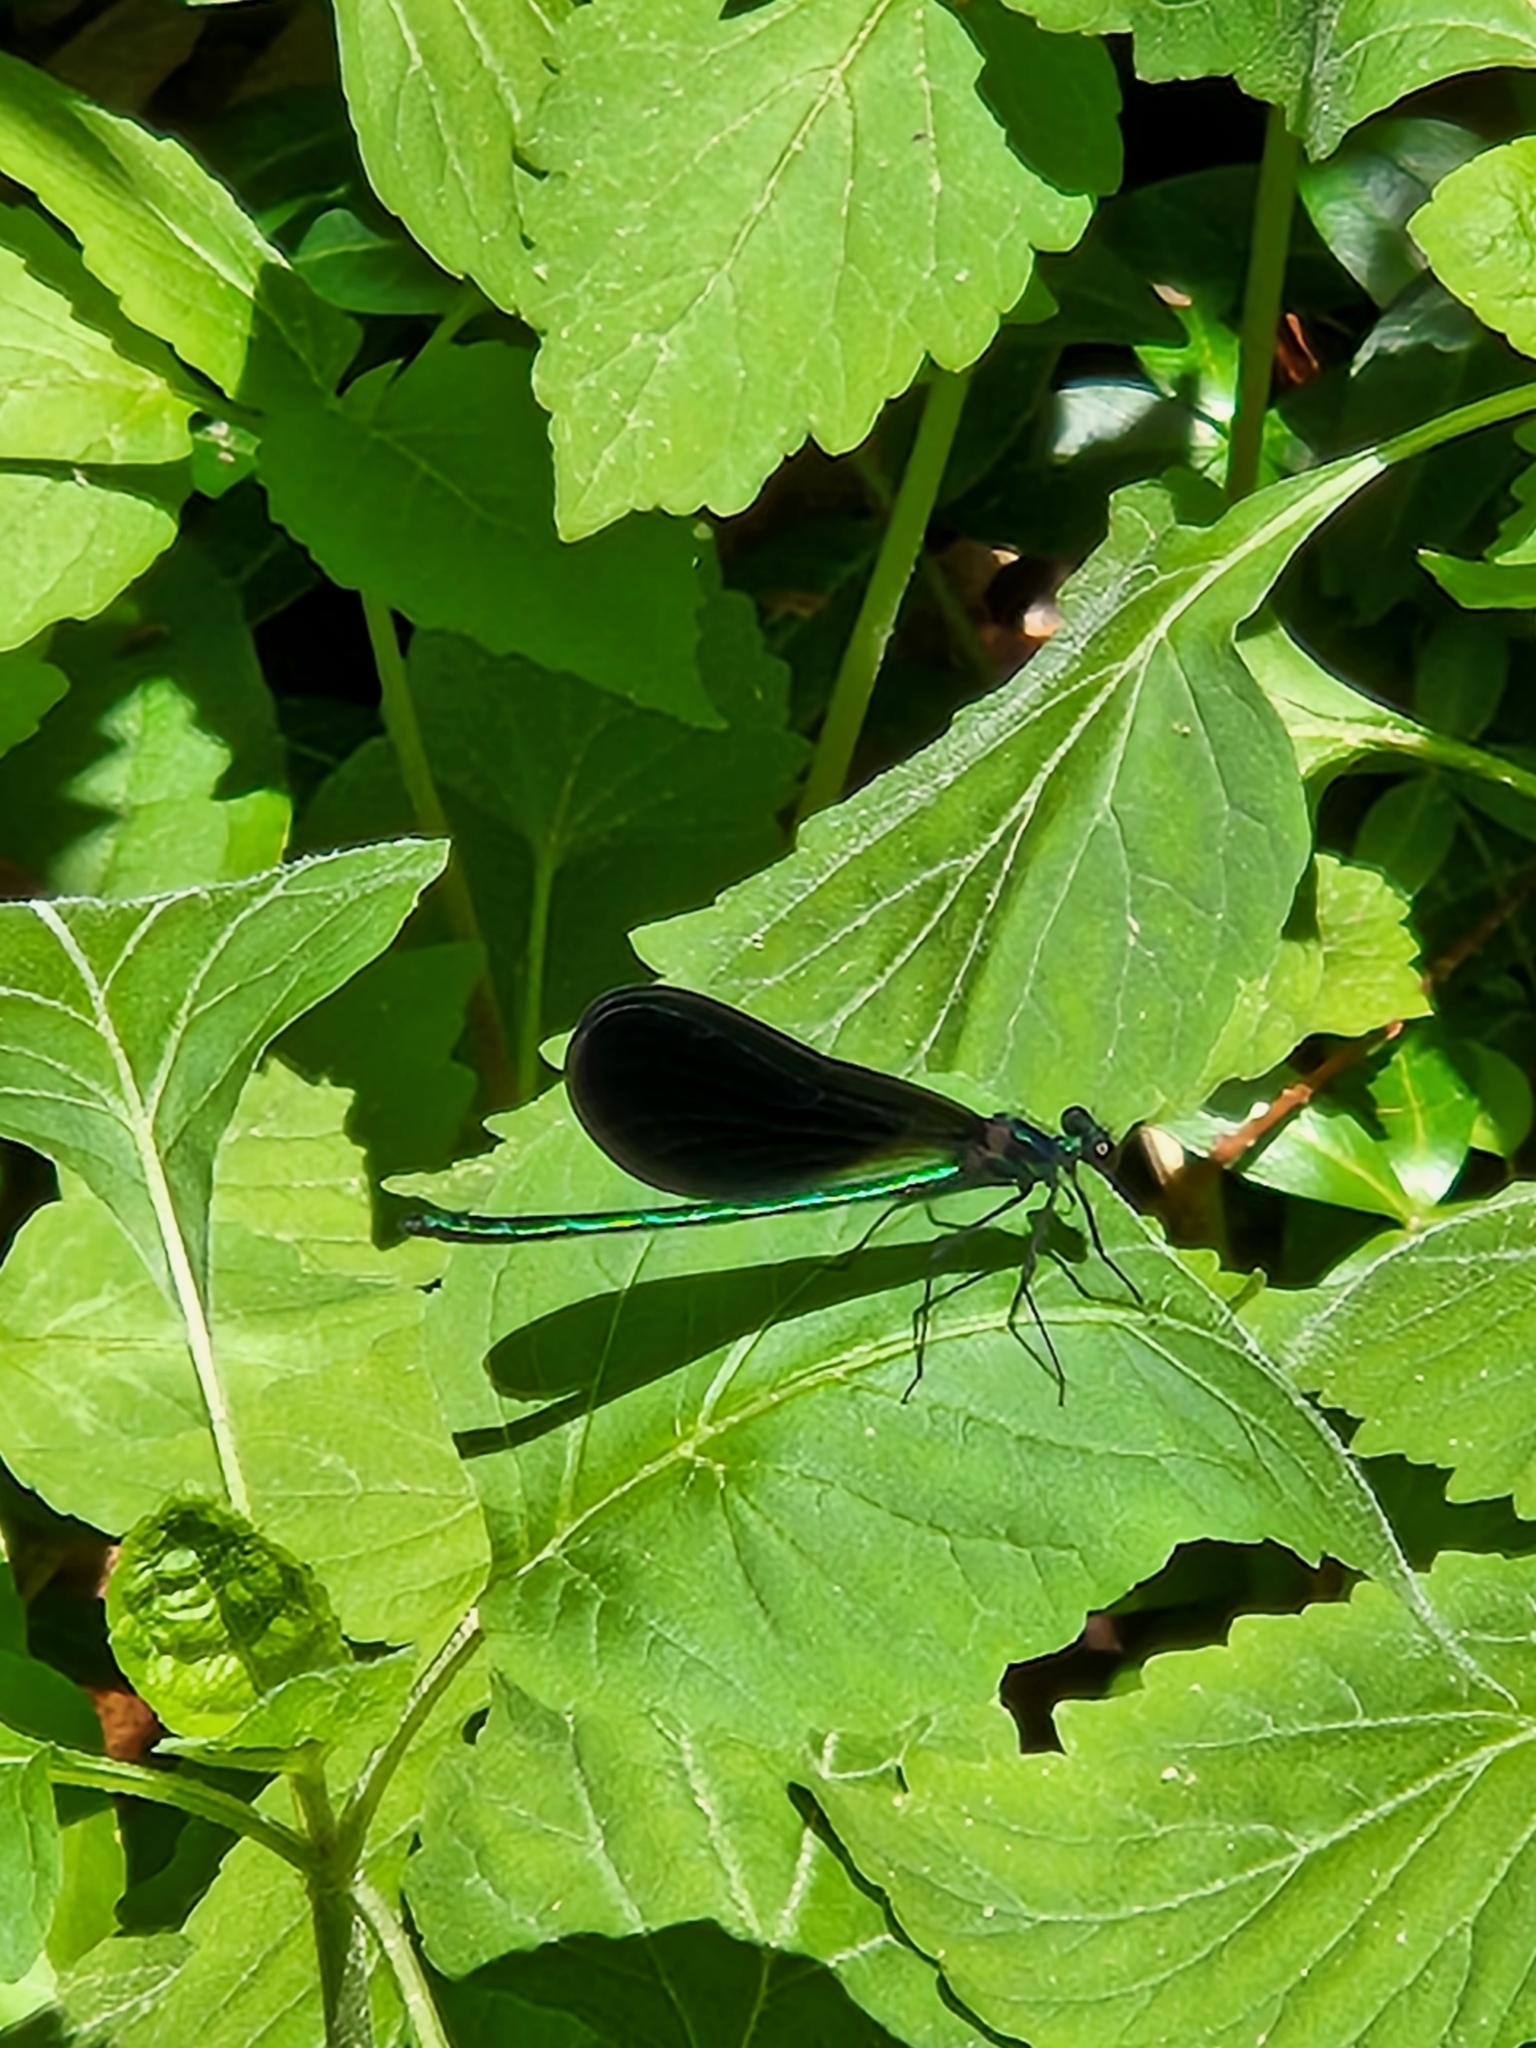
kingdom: Animalia
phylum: Arthropoda
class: Insecta
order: Odonata
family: Calopterygidae
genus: Calopteryx
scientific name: Calopteryx maculata
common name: Ebony jewelwing
